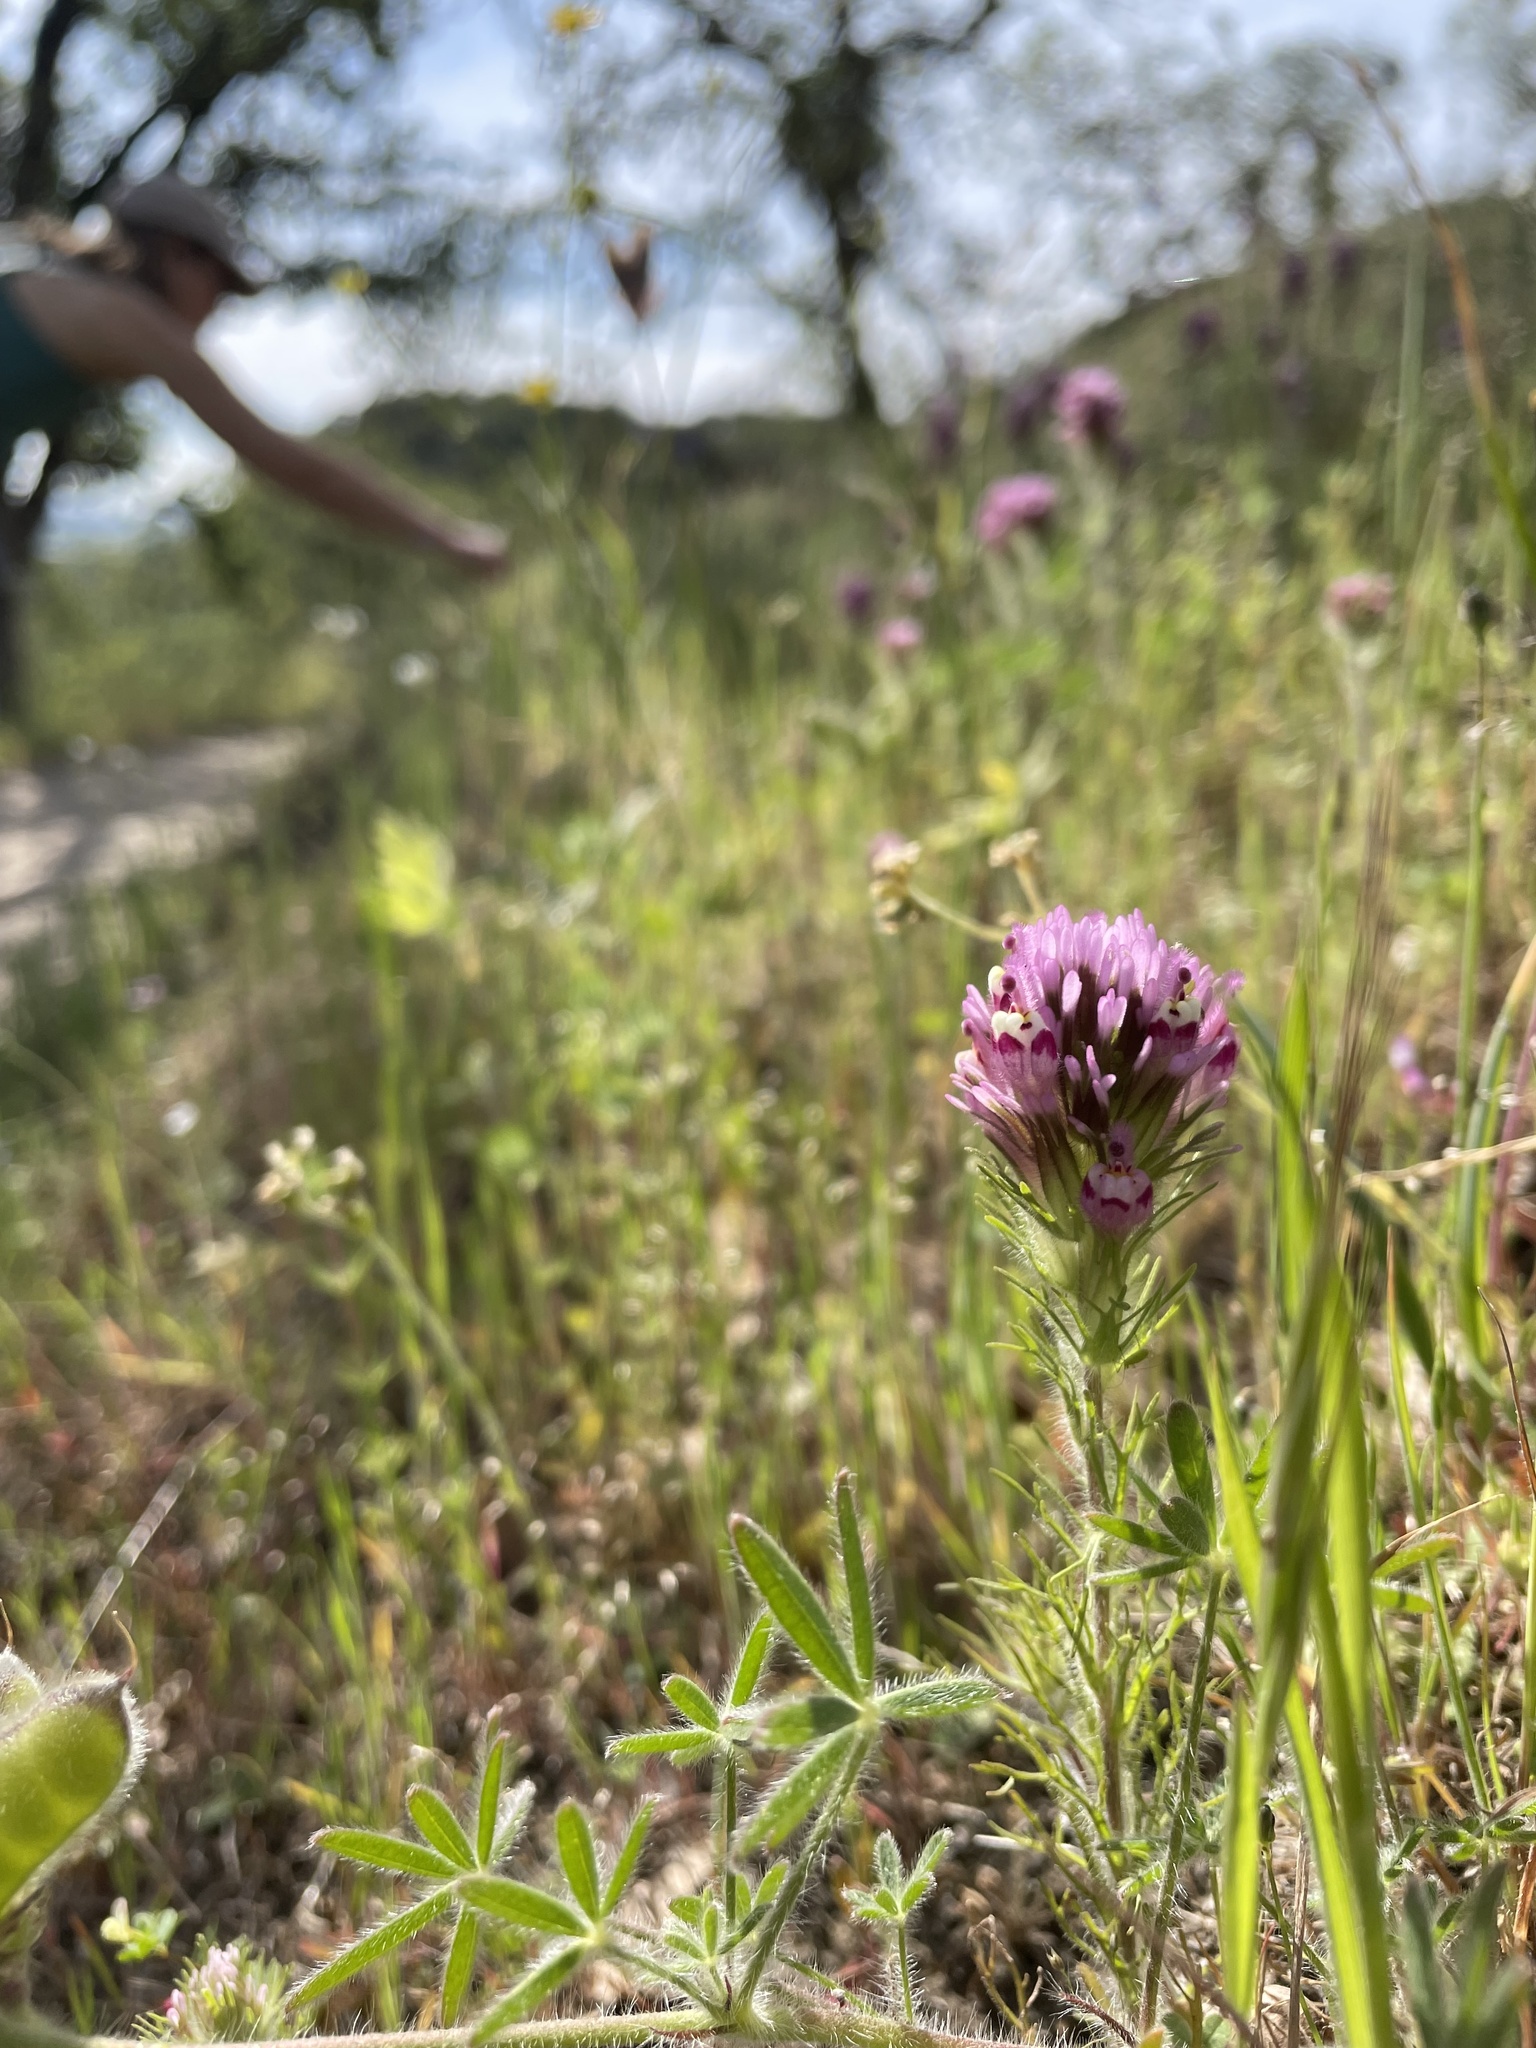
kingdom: Plantae
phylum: Tracheophyta
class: Magnoliopsida
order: Lamiales
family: Orobanchaceae
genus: Castilleja
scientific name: Castilleja exserta
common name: Purple owl-clover
